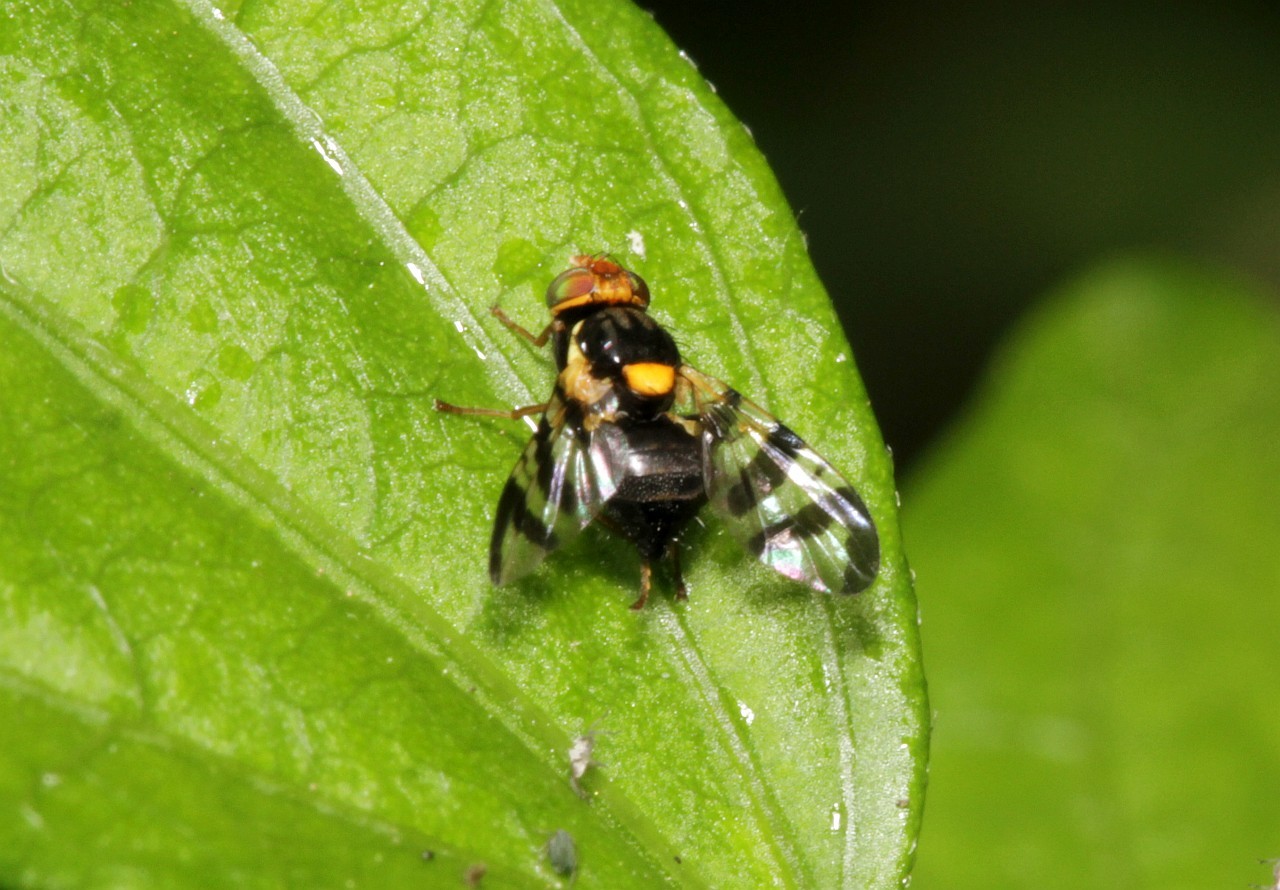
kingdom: Animalia
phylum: Arthropoda
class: Insecta
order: Diptera
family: Tephritidae
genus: Rhagoletis
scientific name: Rhagoletis cerasi
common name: European cherry fruit fly
